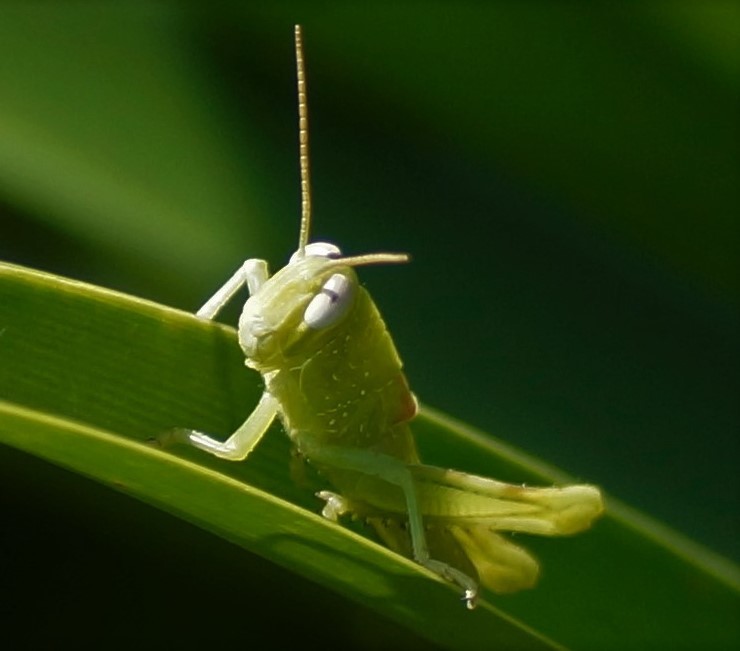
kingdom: Animalia
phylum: Arthropoda
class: Insecta
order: Orthoptera
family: Acrididae
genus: Valanga
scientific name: Valanga irregularis
